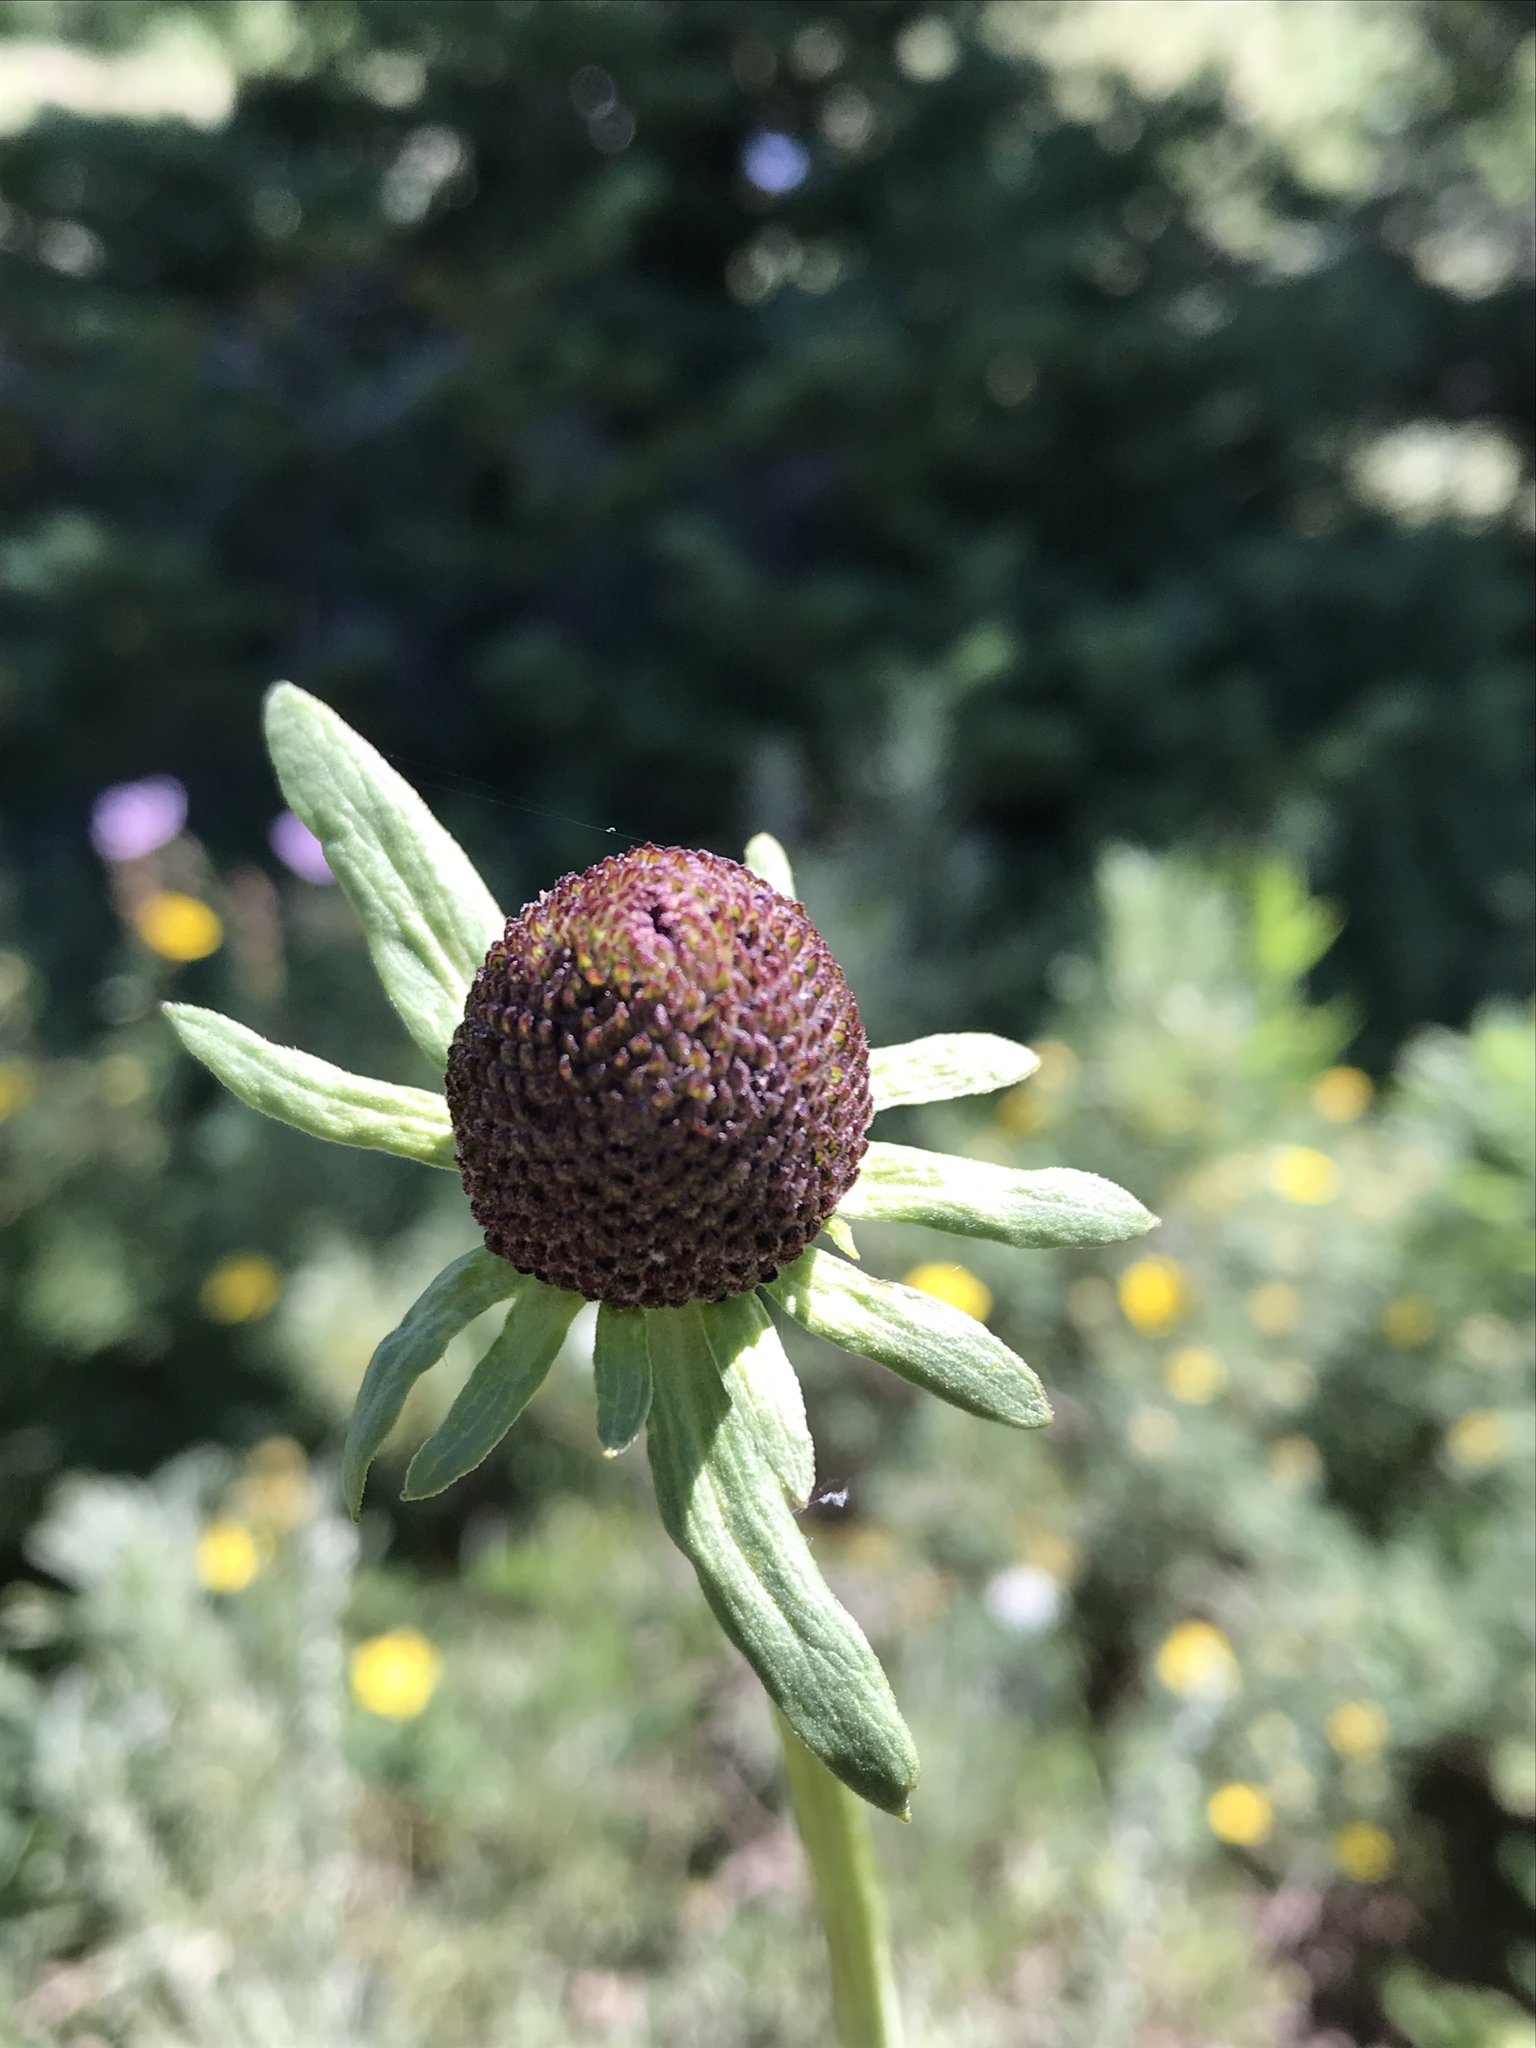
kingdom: Plantae
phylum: Tracheophyta
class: Magnoliopsida
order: Asterales
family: Asteraceae
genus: Rudbeckia
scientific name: Rudbeckia occidentalis
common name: Western coneflower
